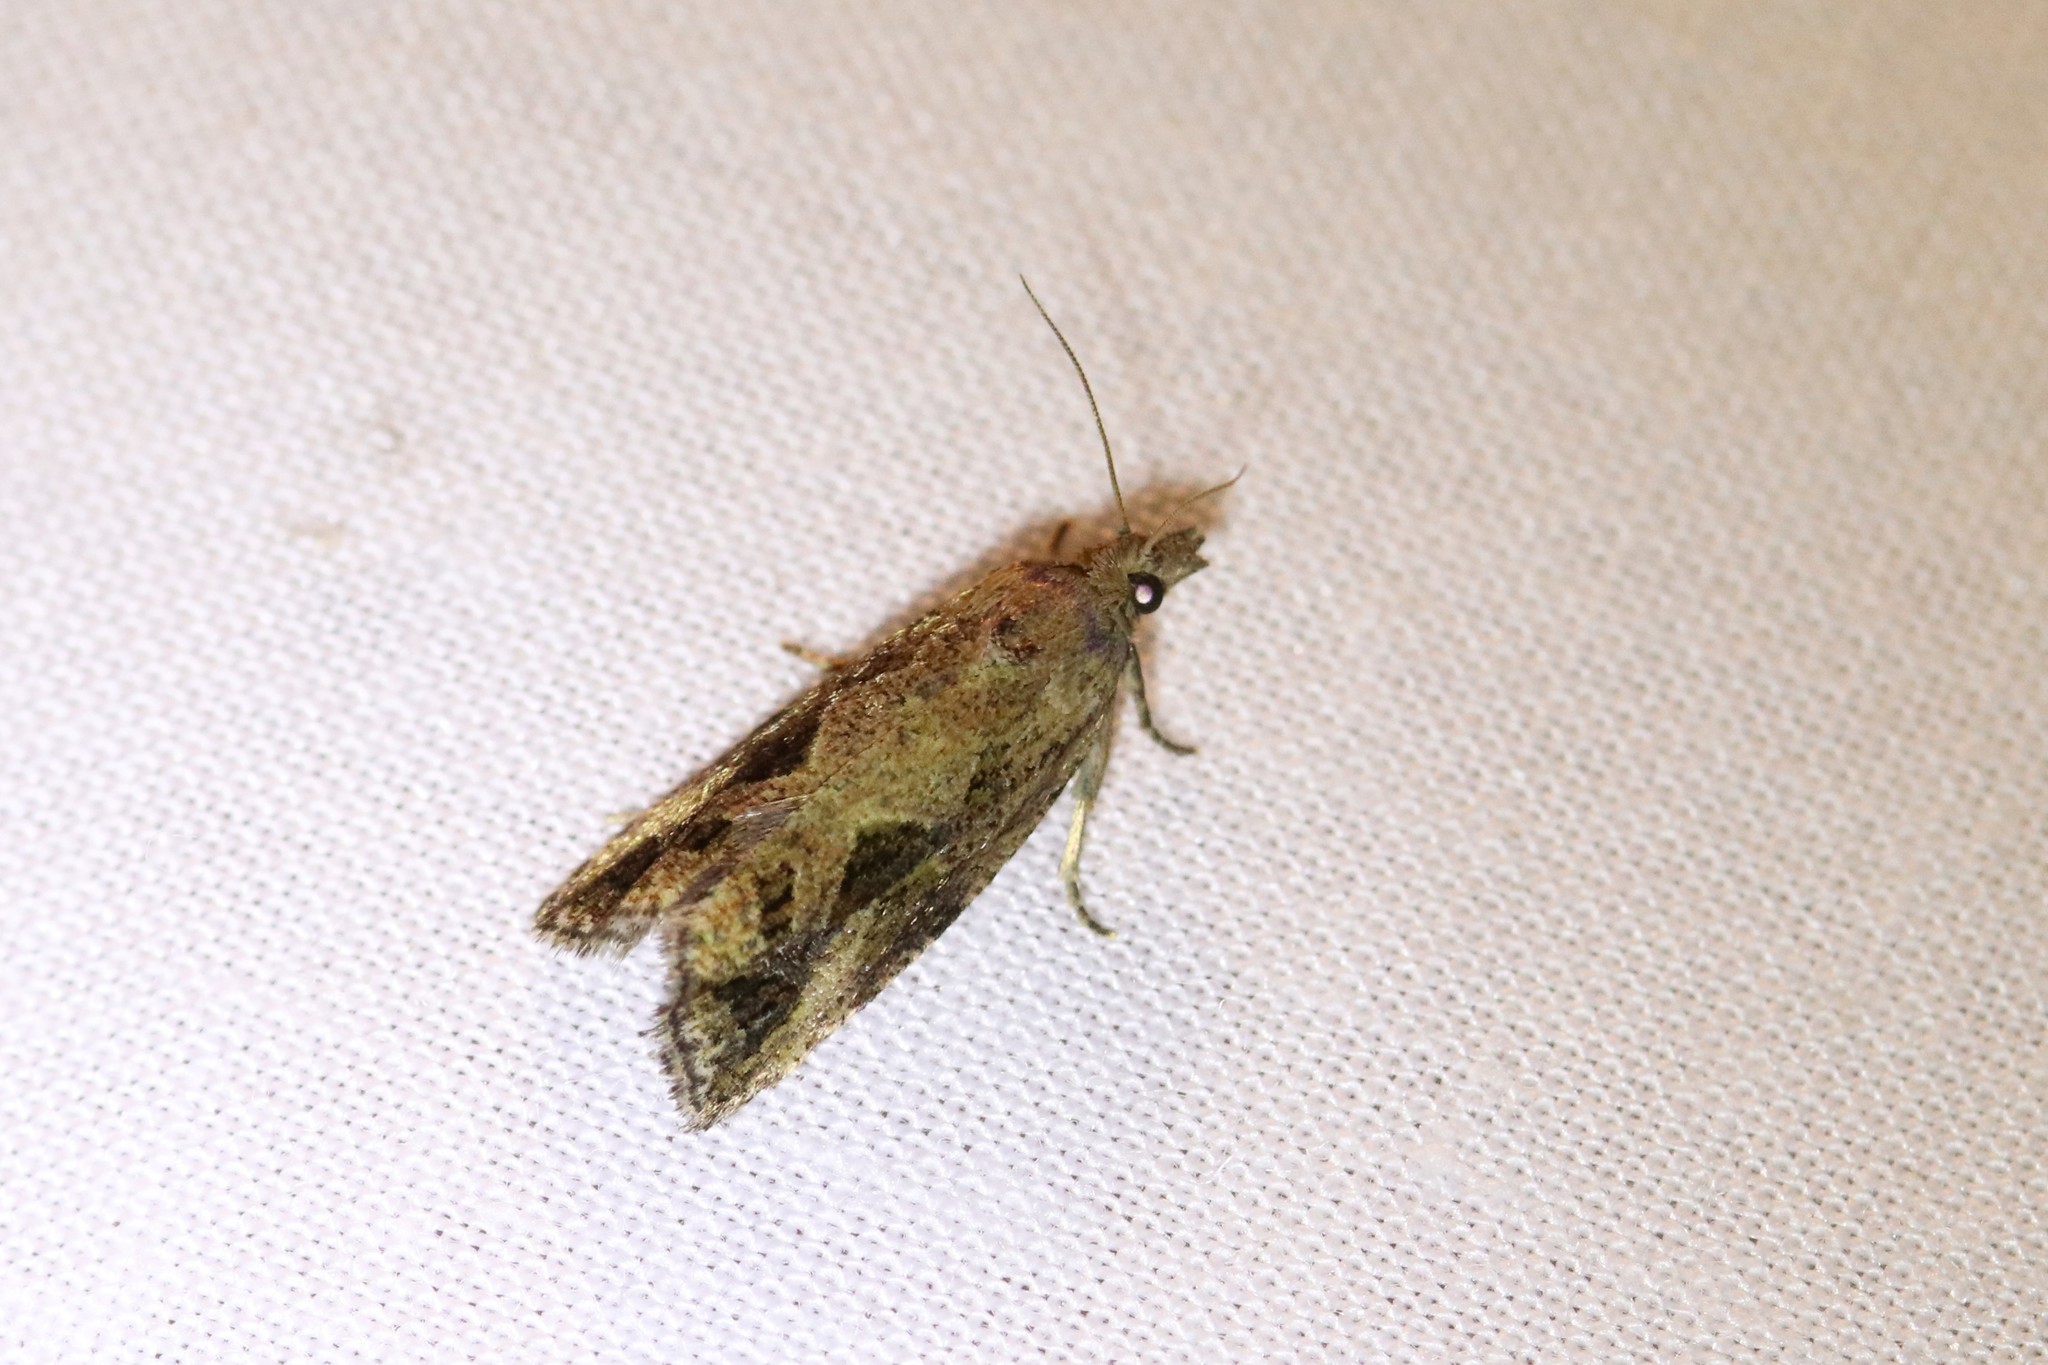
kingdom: Animalia
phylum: Arthropoda
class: Insecta
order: Lepidoptera
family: Tortricidae
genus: Endothenia
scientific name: Endothenia nubilana
